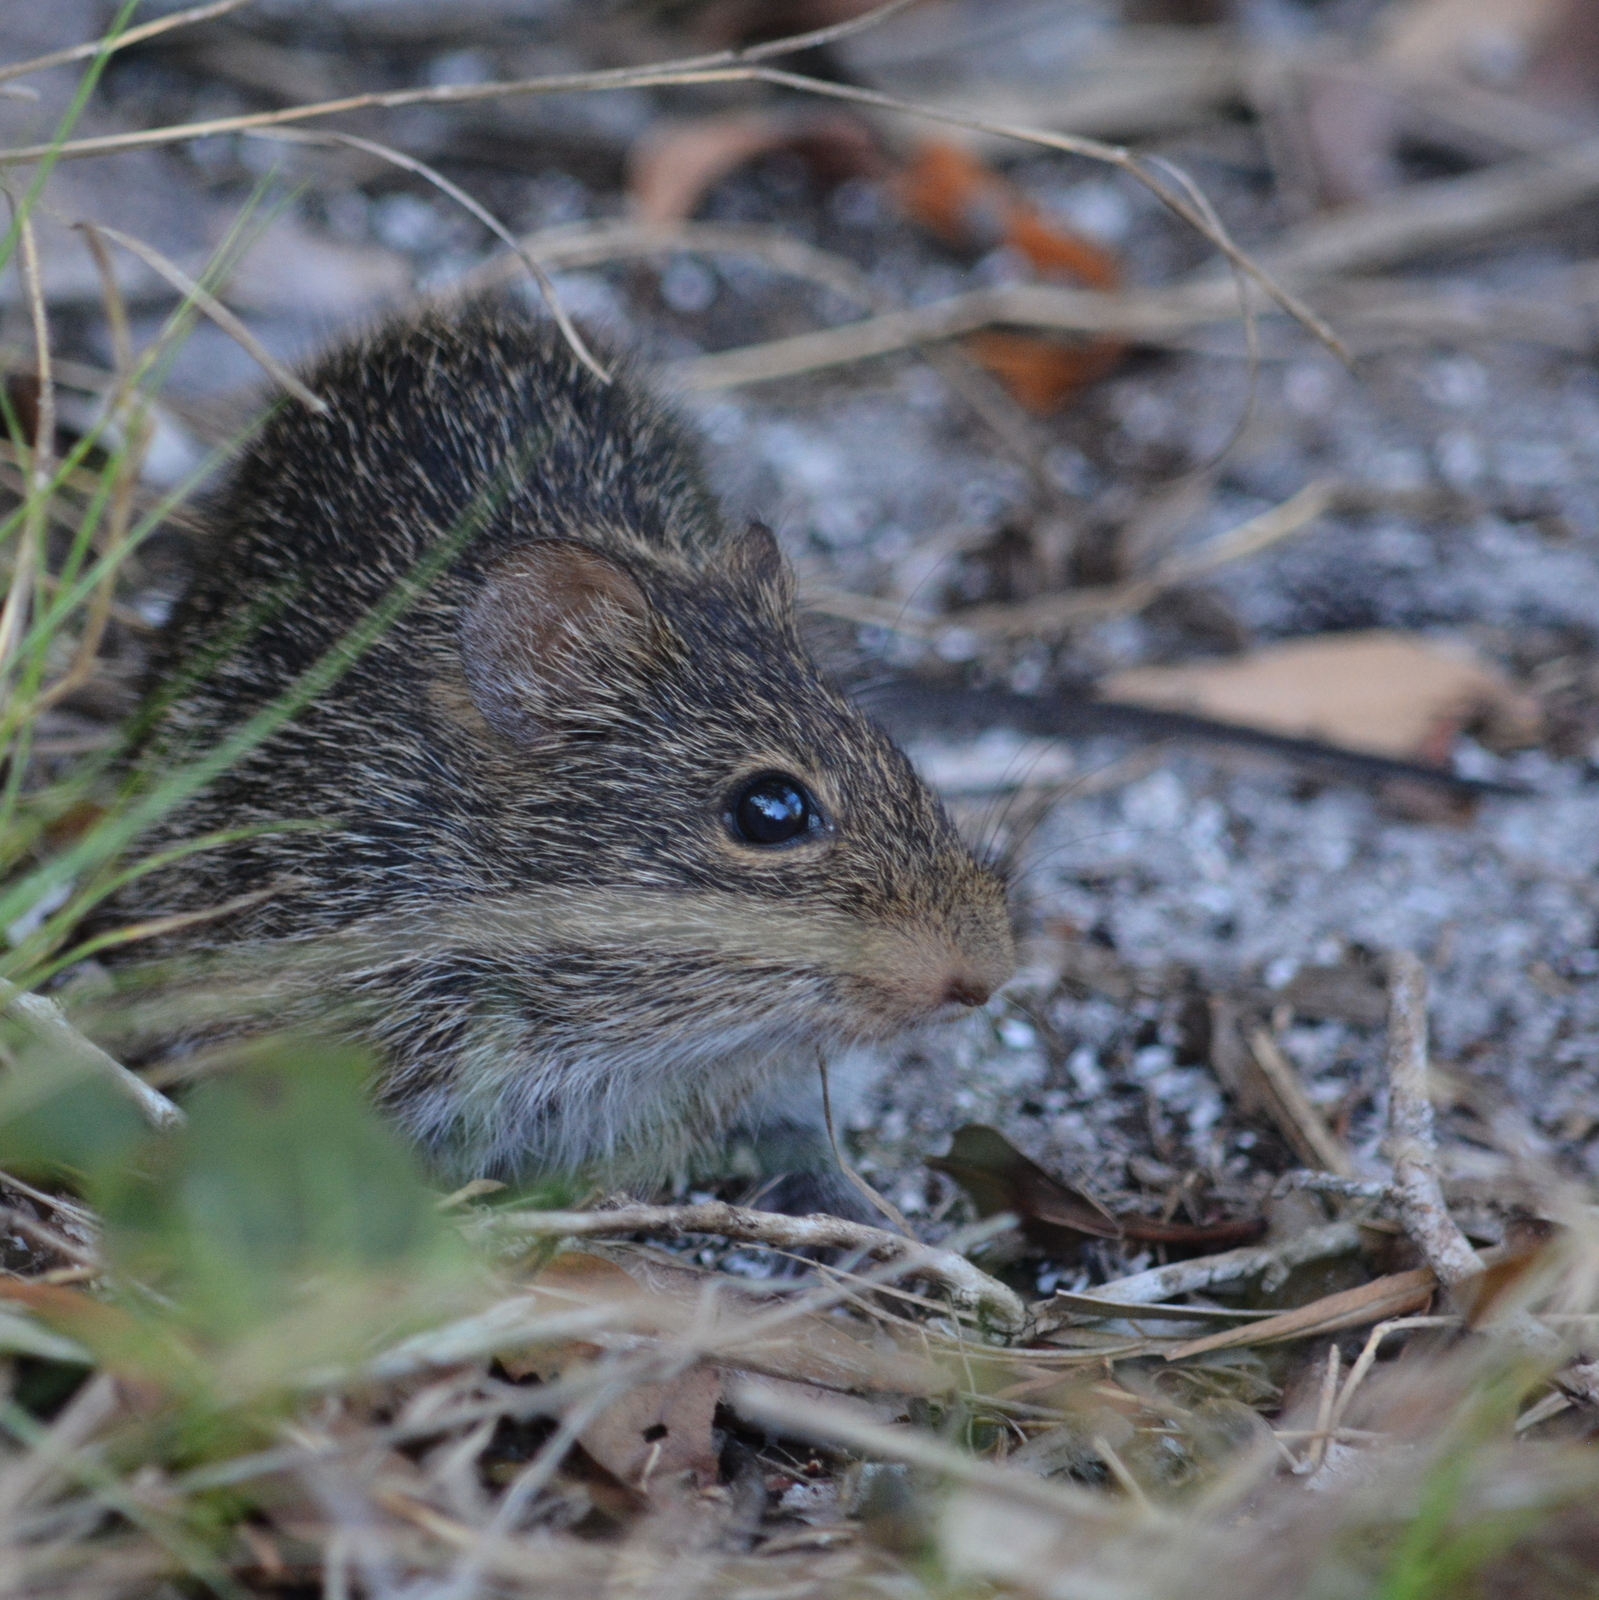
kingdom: Animalia
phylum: Chordata
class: Mammalia
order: Rodentia
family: Cricetidae
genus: Sigmodon
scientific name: Sigmodon hispidus
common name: Hispid cotton rat
